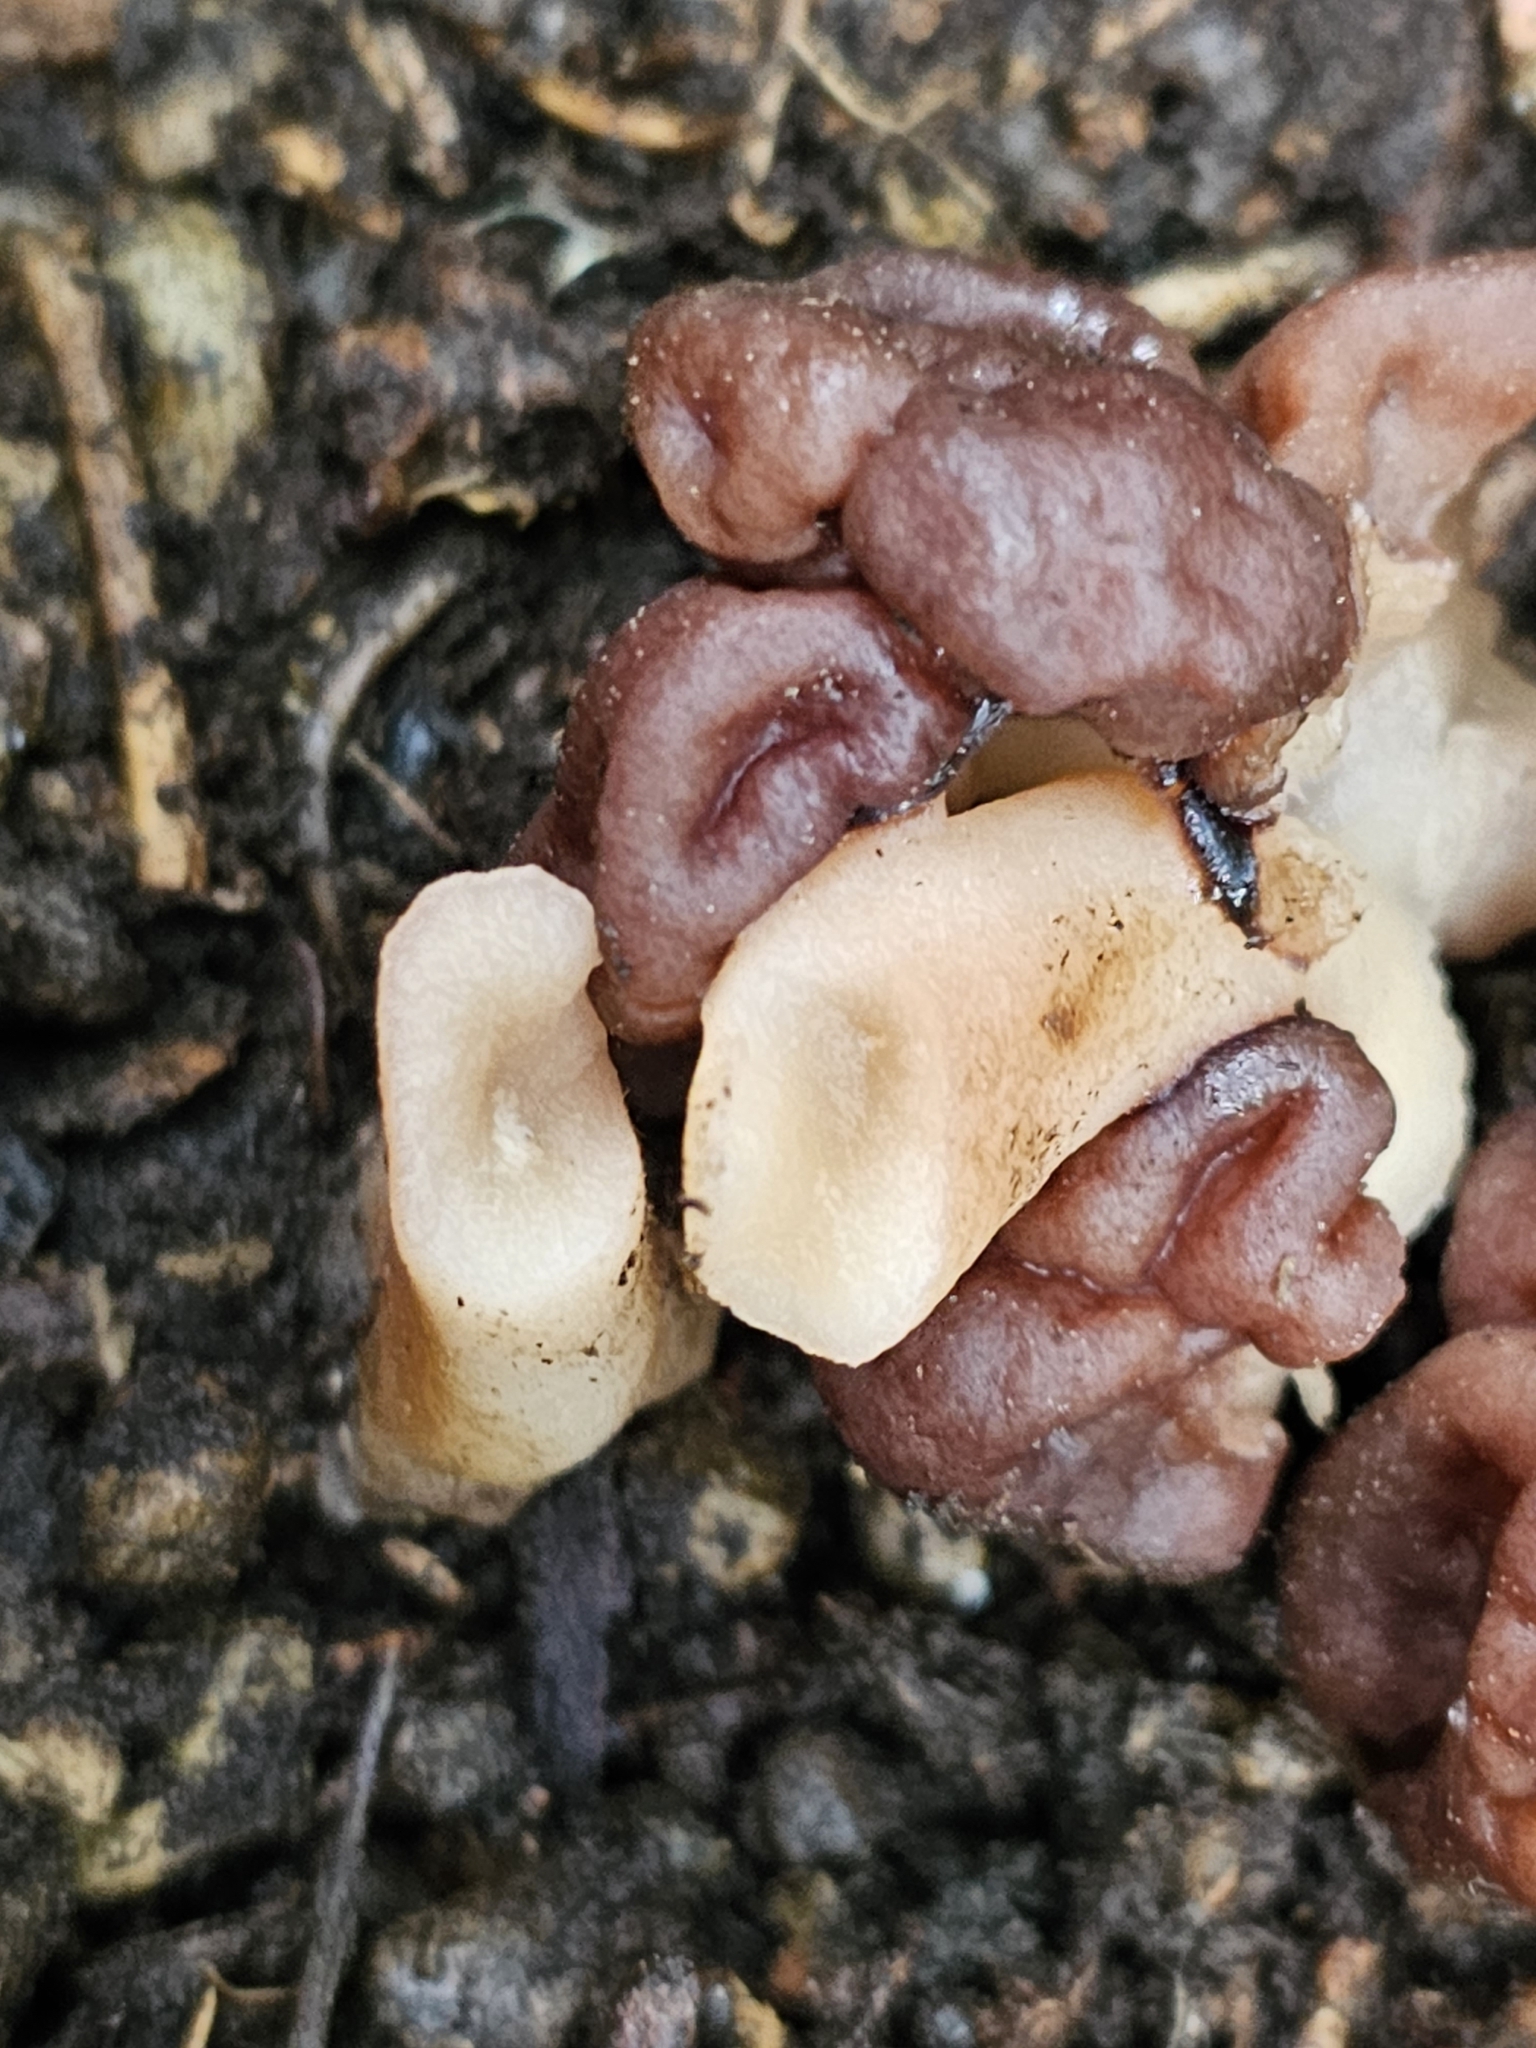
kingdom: Fungi
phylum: Ascomycota
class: Pezizomycetes
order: Pezizales
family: Discinaceae
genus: Gyromitra
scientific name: Gyromitra tasmanica
